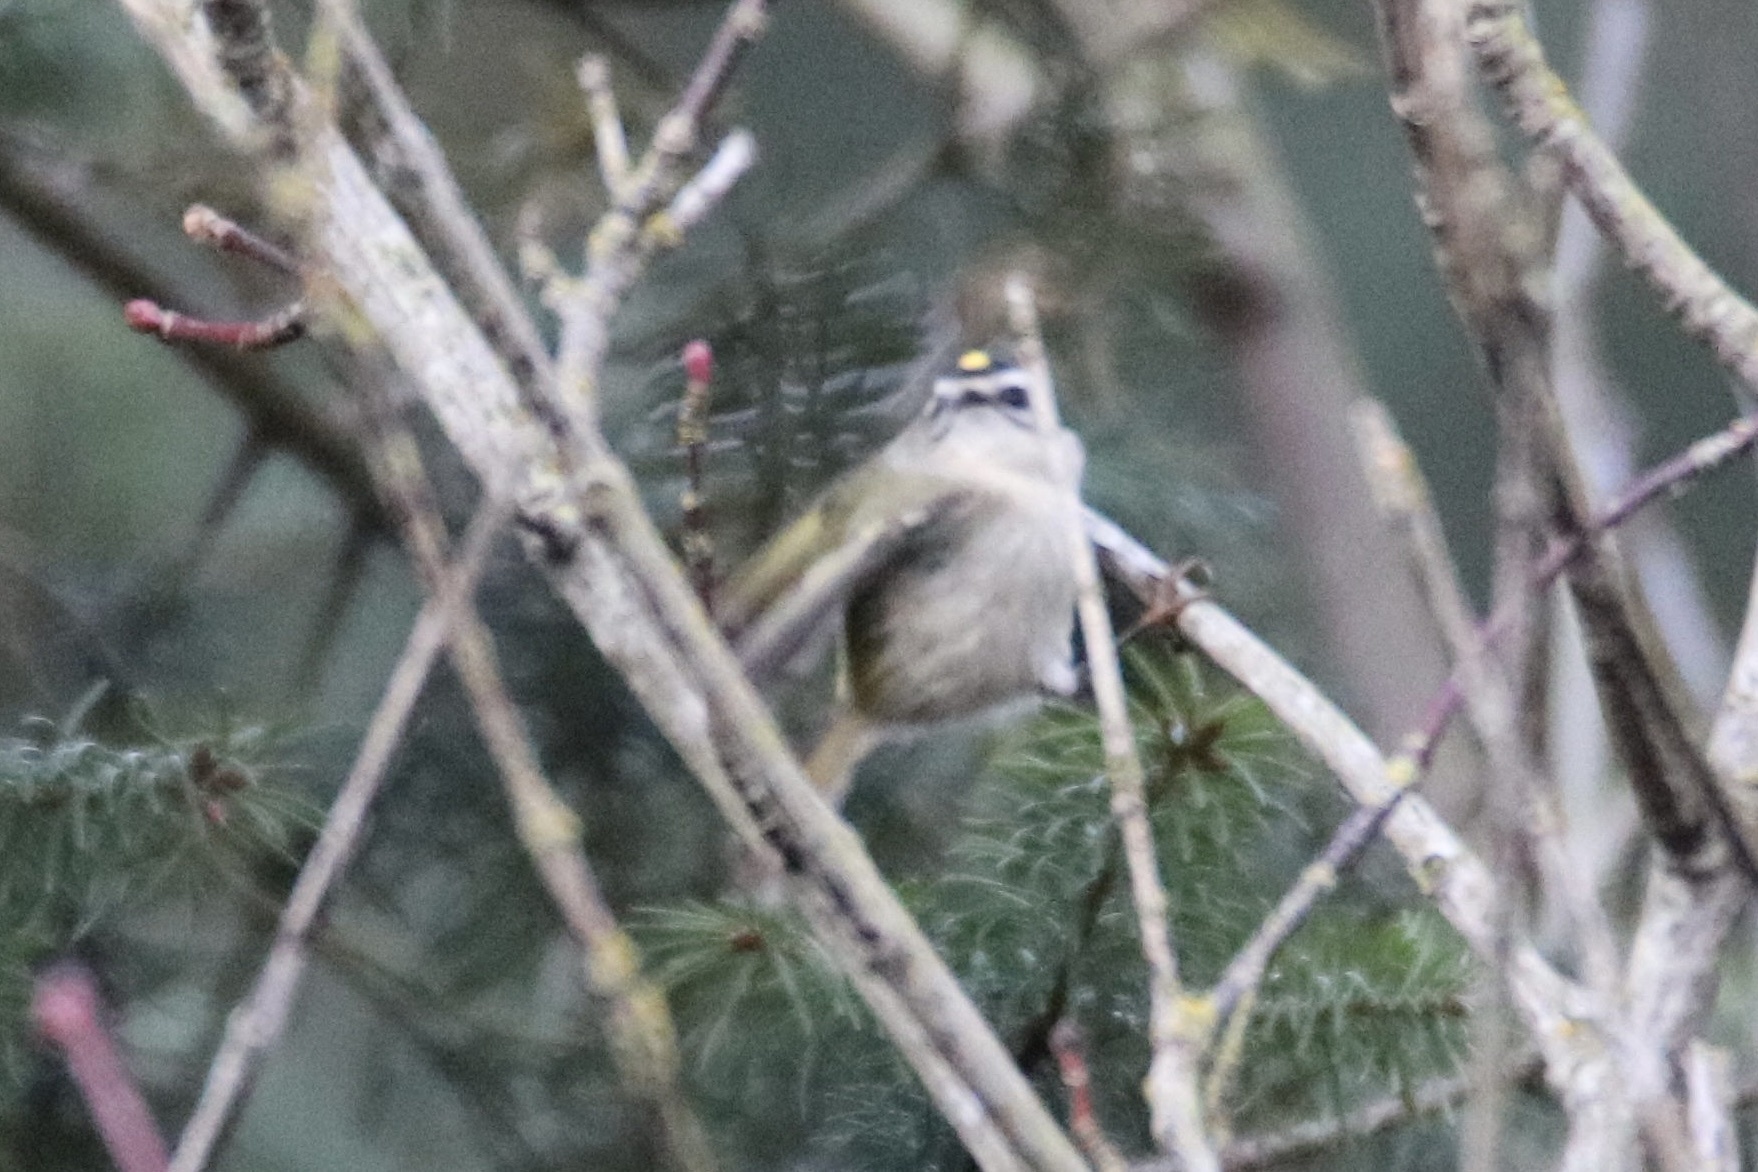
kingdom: Animalia
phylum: Chordata
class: Aves
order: Passeriformes
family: Regulidae
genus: Regulus
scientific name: Regulus satrapa
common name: Golden-crowned kinglet
